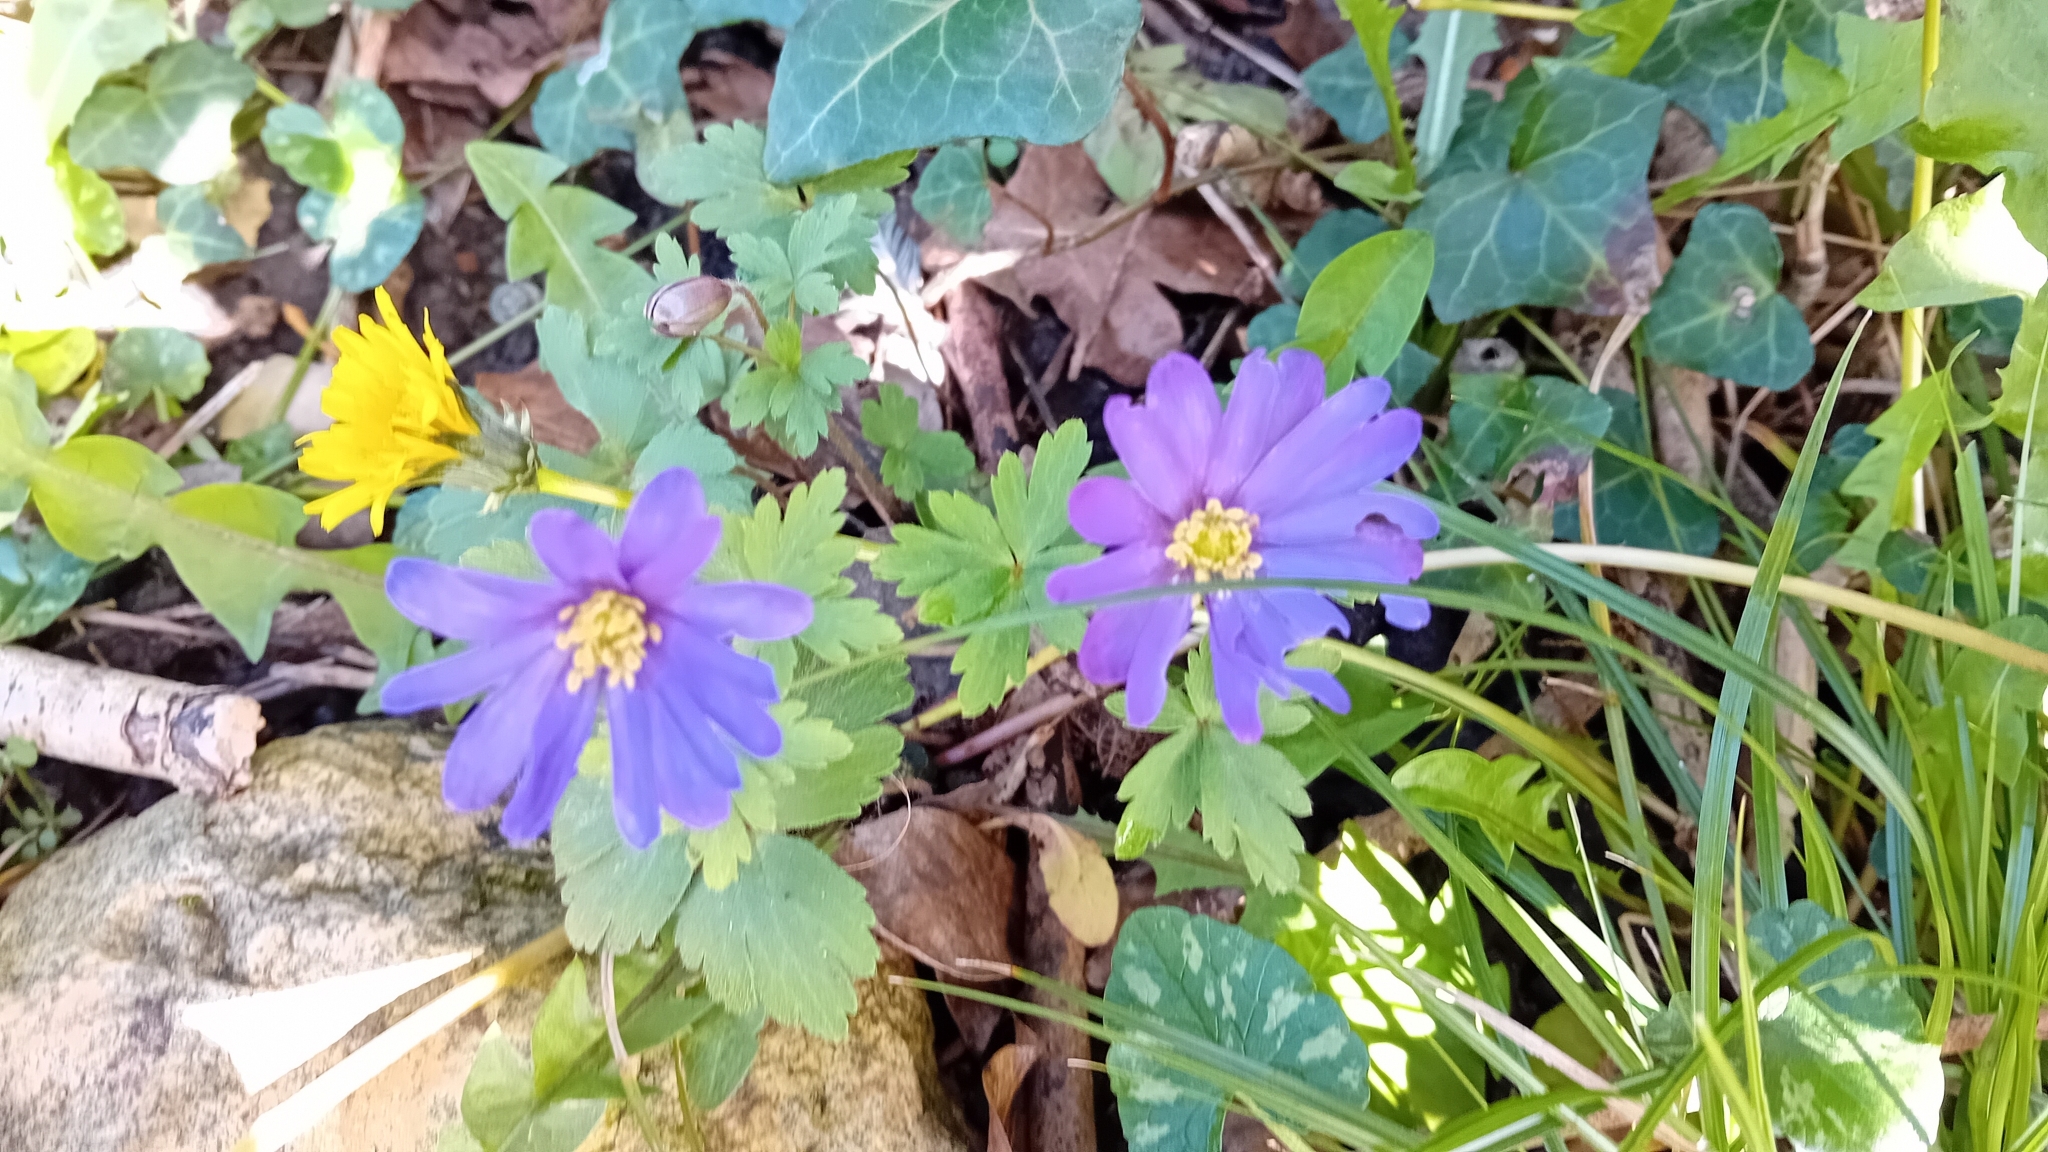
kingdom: Plantae
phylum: Tracheophyta
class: Magnoliopsida
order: Ranunculales
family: Ranunculaceae
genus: Anemone
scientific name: Anemone blanda
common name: Balkan anemone
